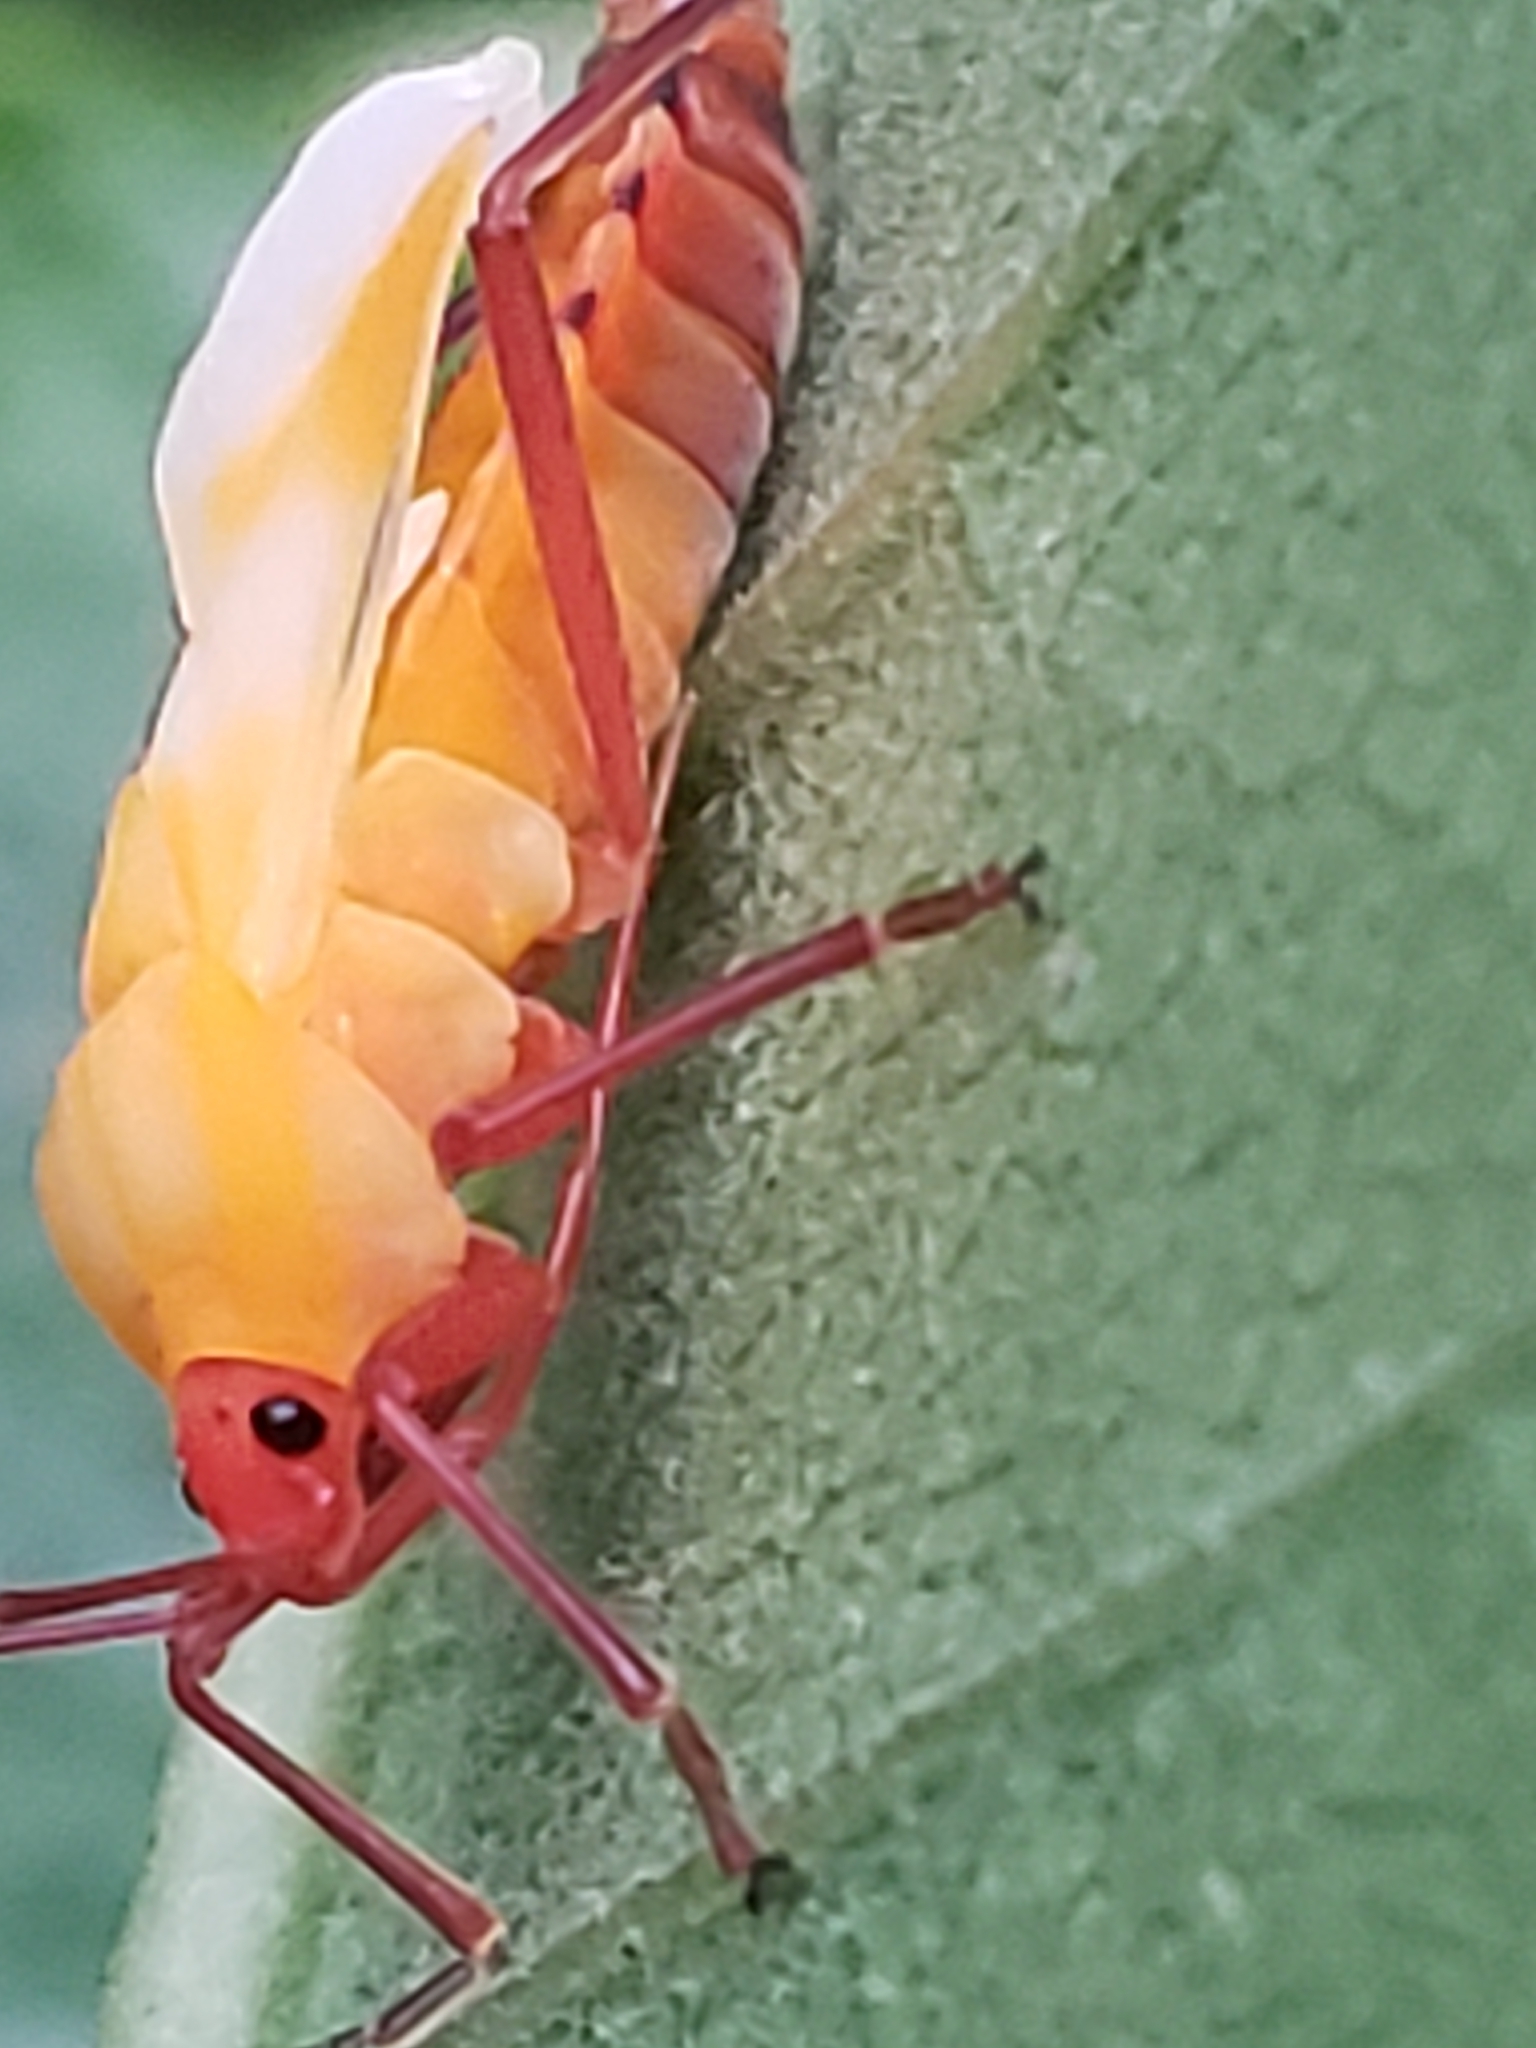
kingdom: Animalia
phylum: Arthropoda
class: Insecta
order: Hemiptera
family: Lygaeidae
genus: Oncopeltus
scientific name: Oncopeltus fasciatus
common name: Large milkweed bug
